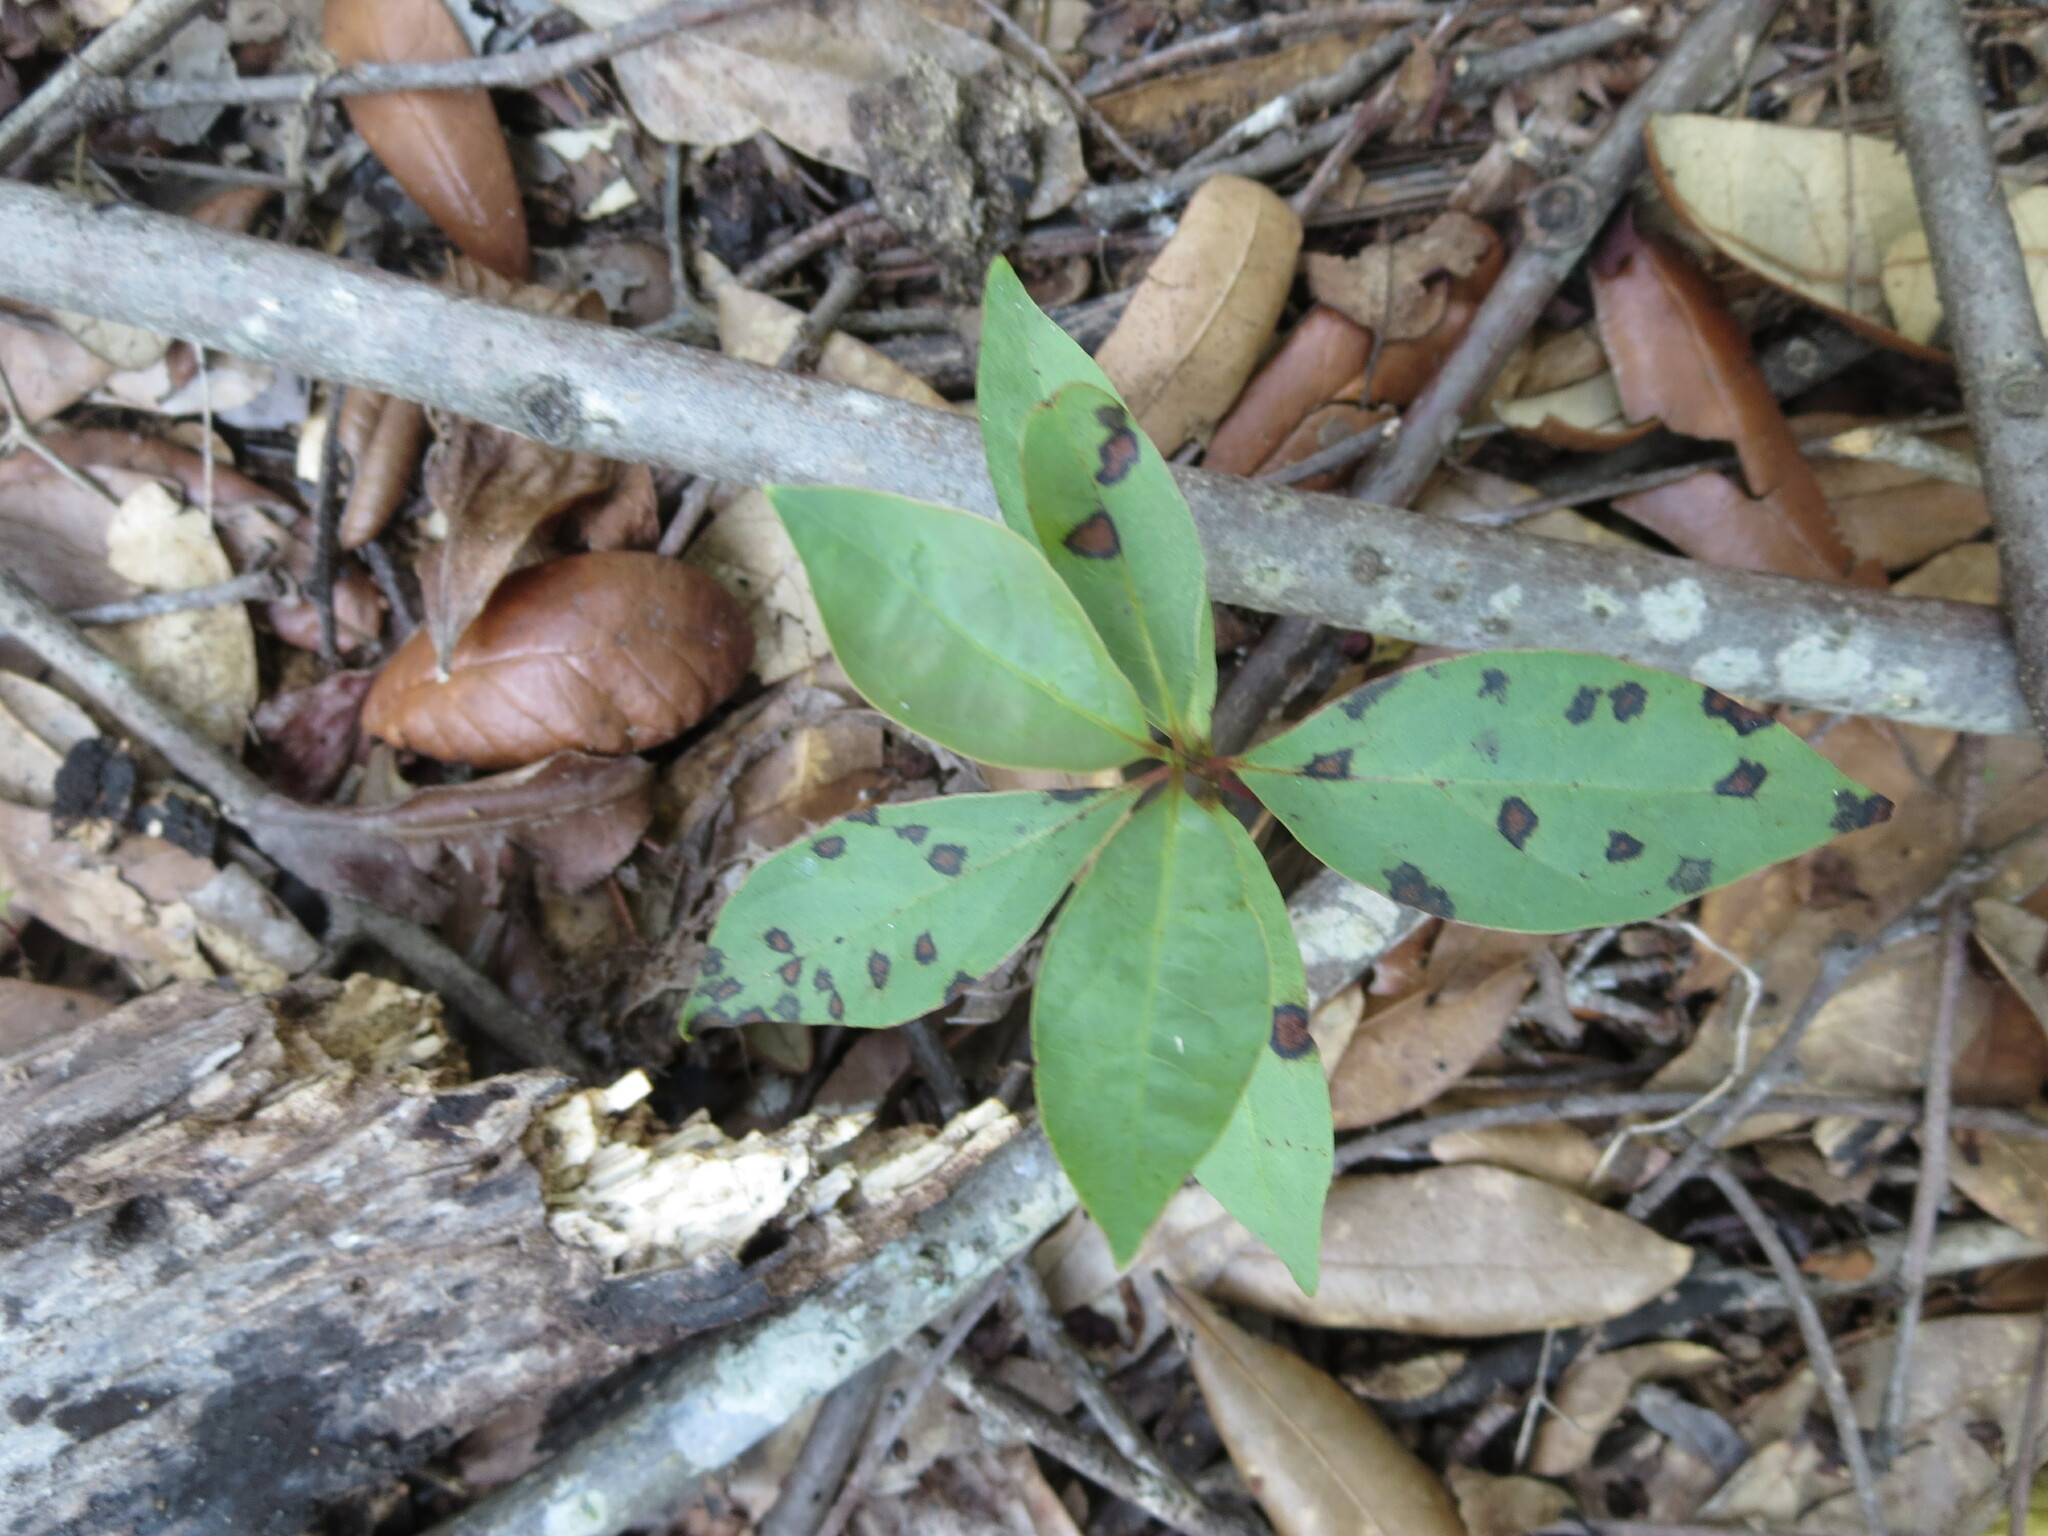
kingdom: Plantae
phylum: Tracheophyta
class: Magnoliopsida
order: Ericales
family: Ebenaceae
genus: Diospyros
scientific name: Diospyros virginiana
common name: Persimmon
